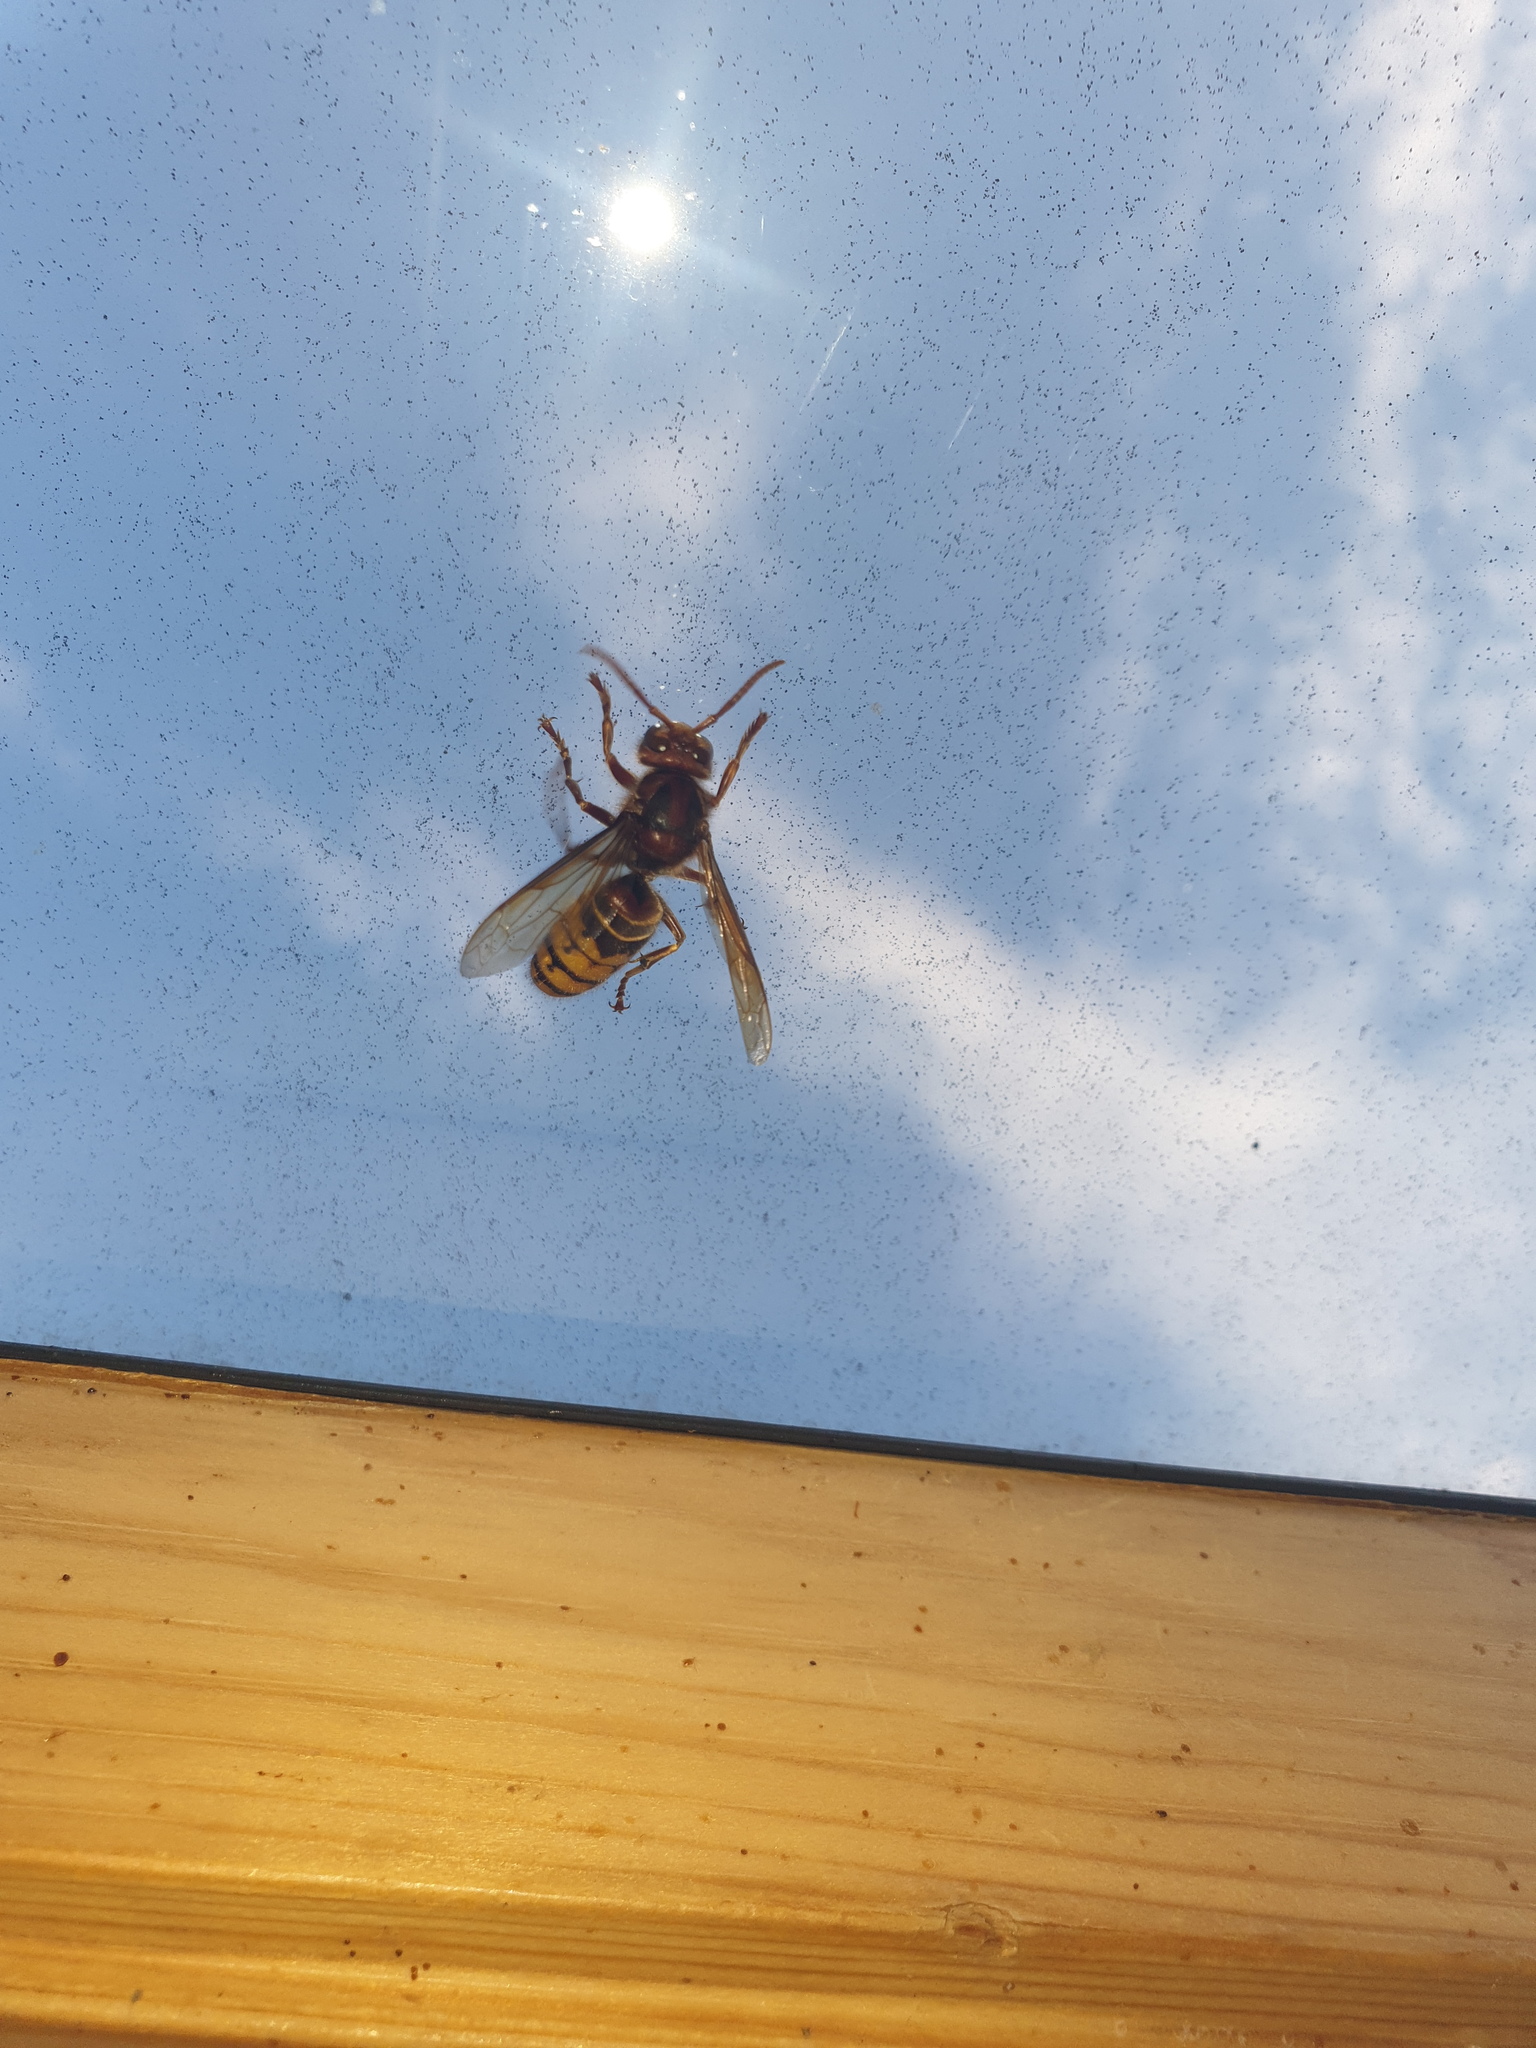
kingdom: Animalia
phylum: Arthropoda
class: Insecta
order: Hymenoptera
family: Vespidae
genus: Vespa
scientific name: Vespa crabro
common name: Hornet
